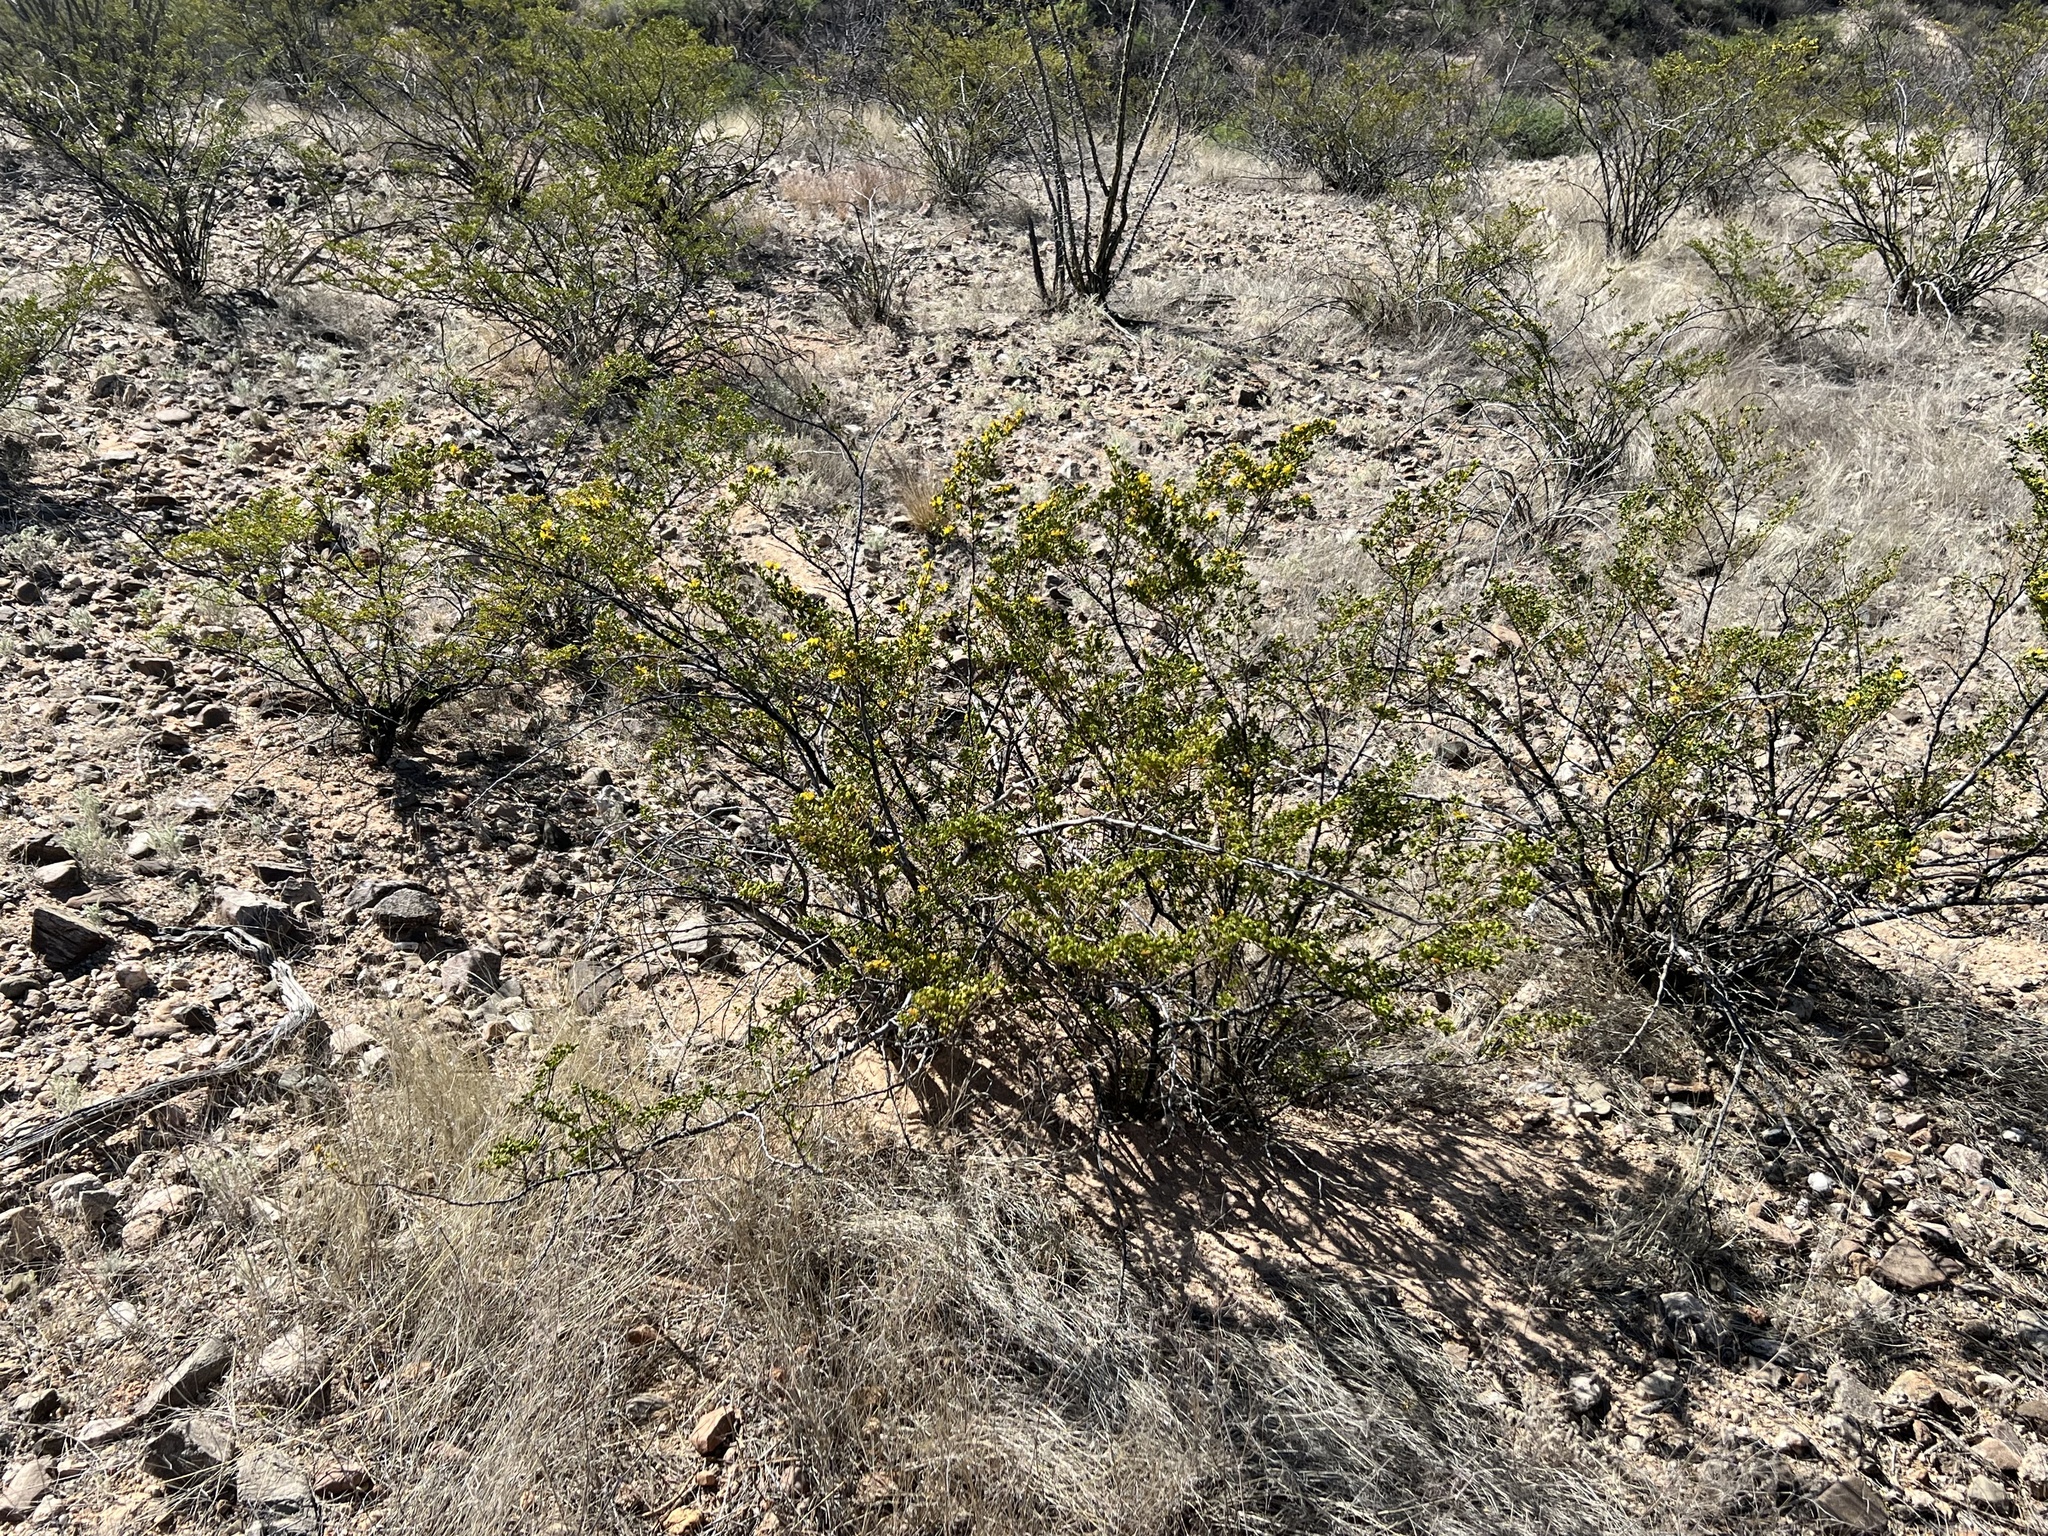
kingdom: Plantae
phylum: Tracheophyta
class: Magnoliopsida
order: Zygophyllales
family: Zygophyllaceae
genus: Larrea
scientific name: Larrea tridentata
